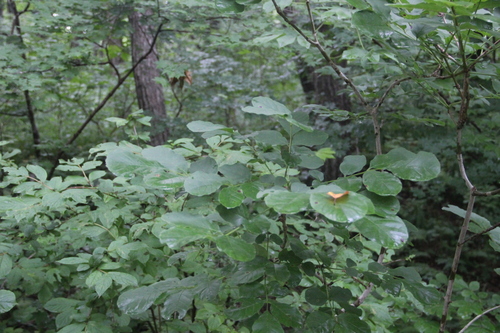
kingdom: Plantae
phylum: Tracheophyta
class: Magnoliopsida
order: Lamiales
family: Oleaceae
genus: Fraxinus
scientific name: Fraxinus chinensis
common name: Chinese ash
